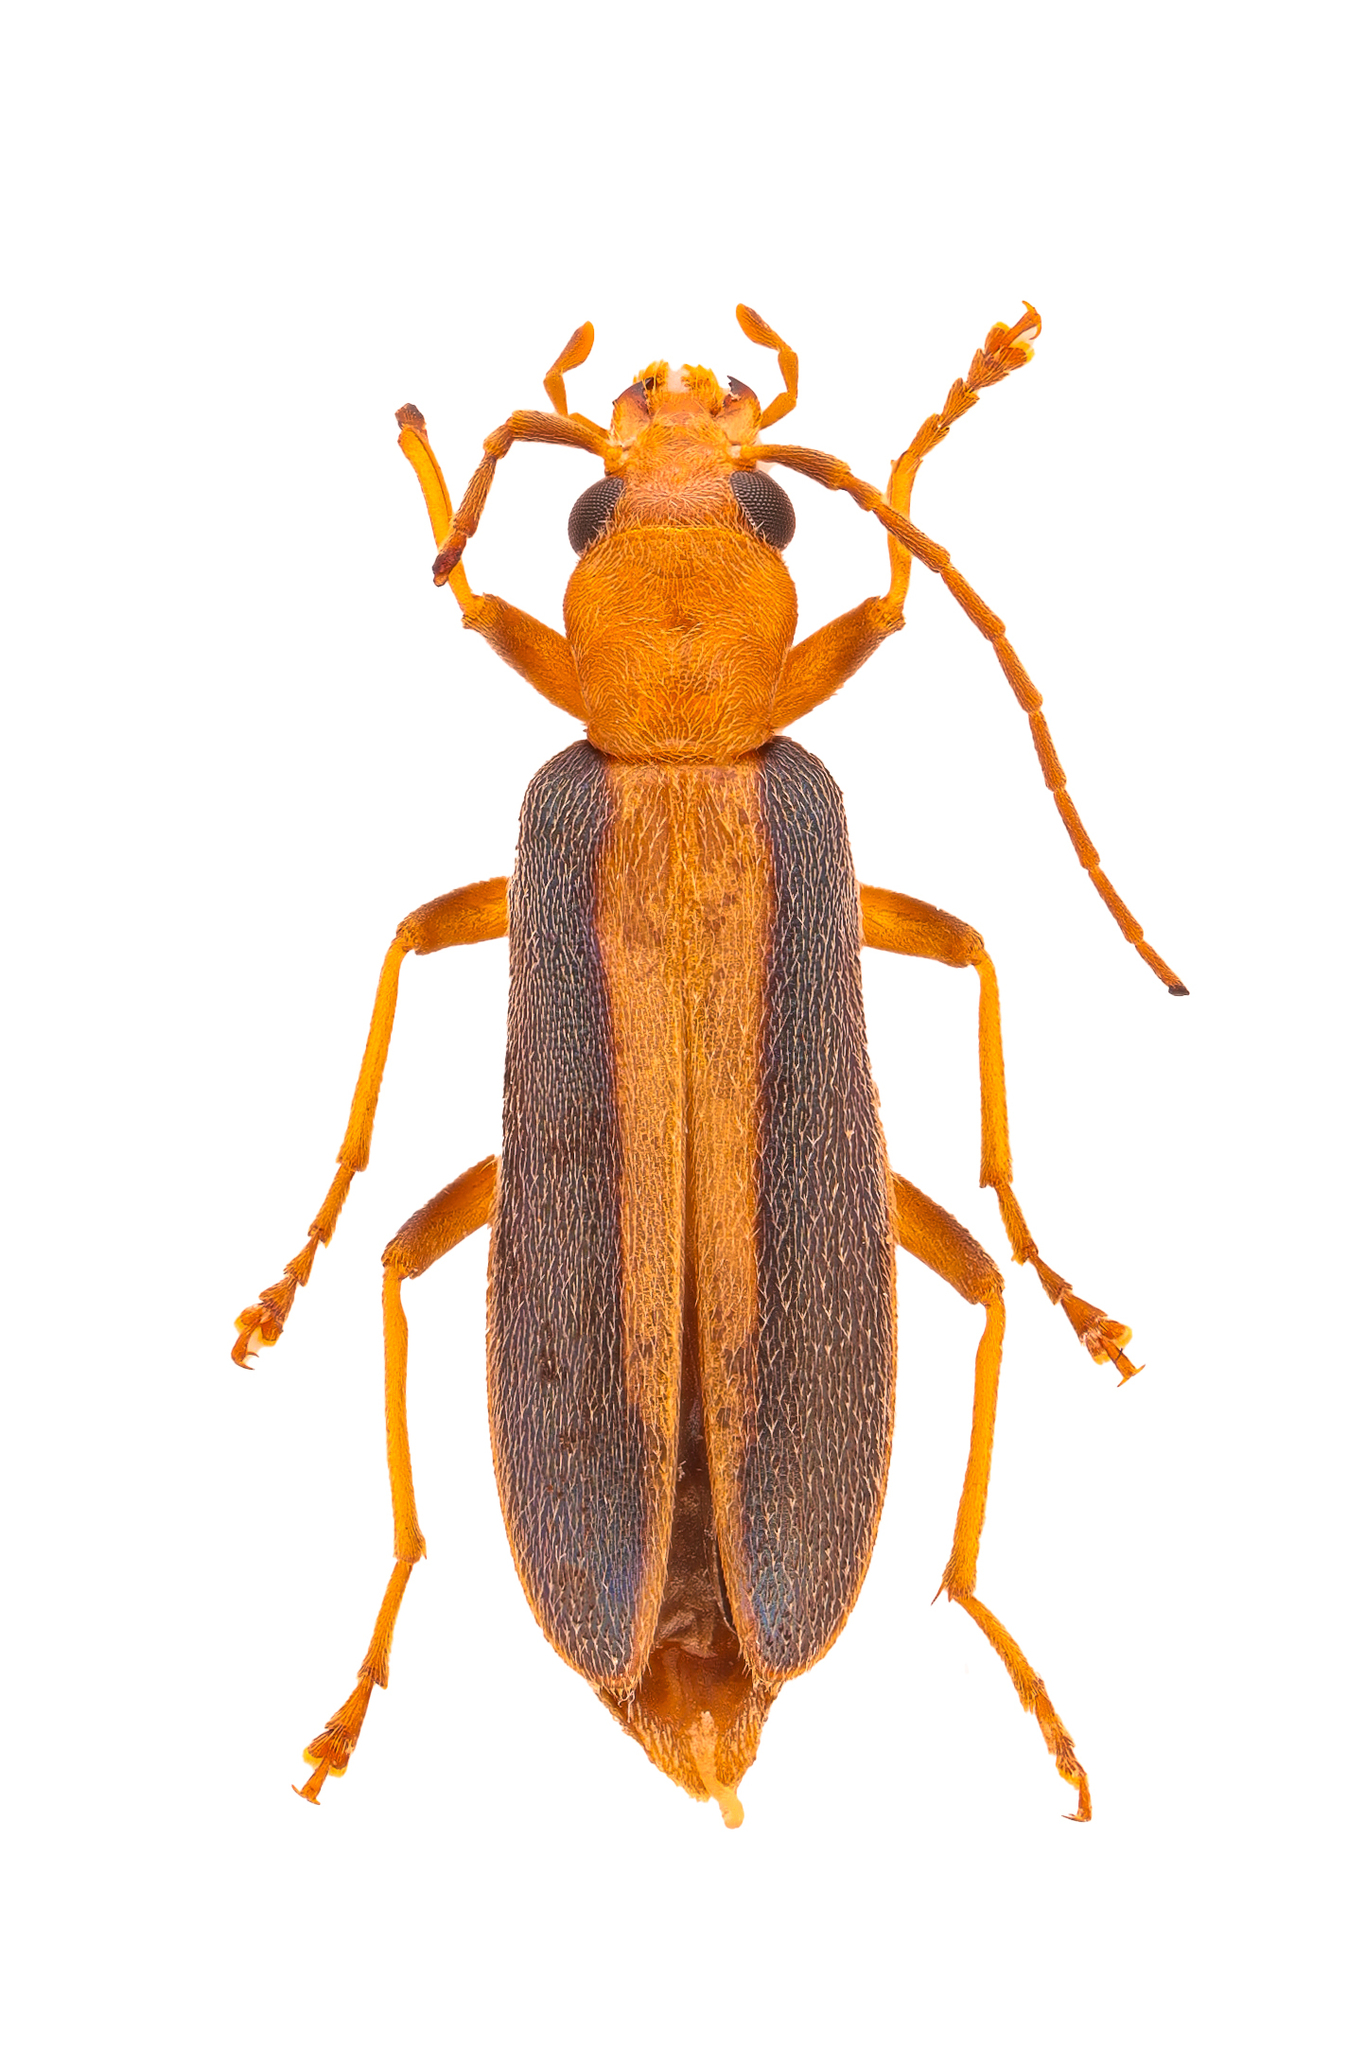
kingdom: Animalia
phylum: Arthropoda
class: Insecta
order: Coleoptera
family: Oedemeridae
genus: Oxycopis
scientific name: Oxycopis vittata
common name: False blister beetle
